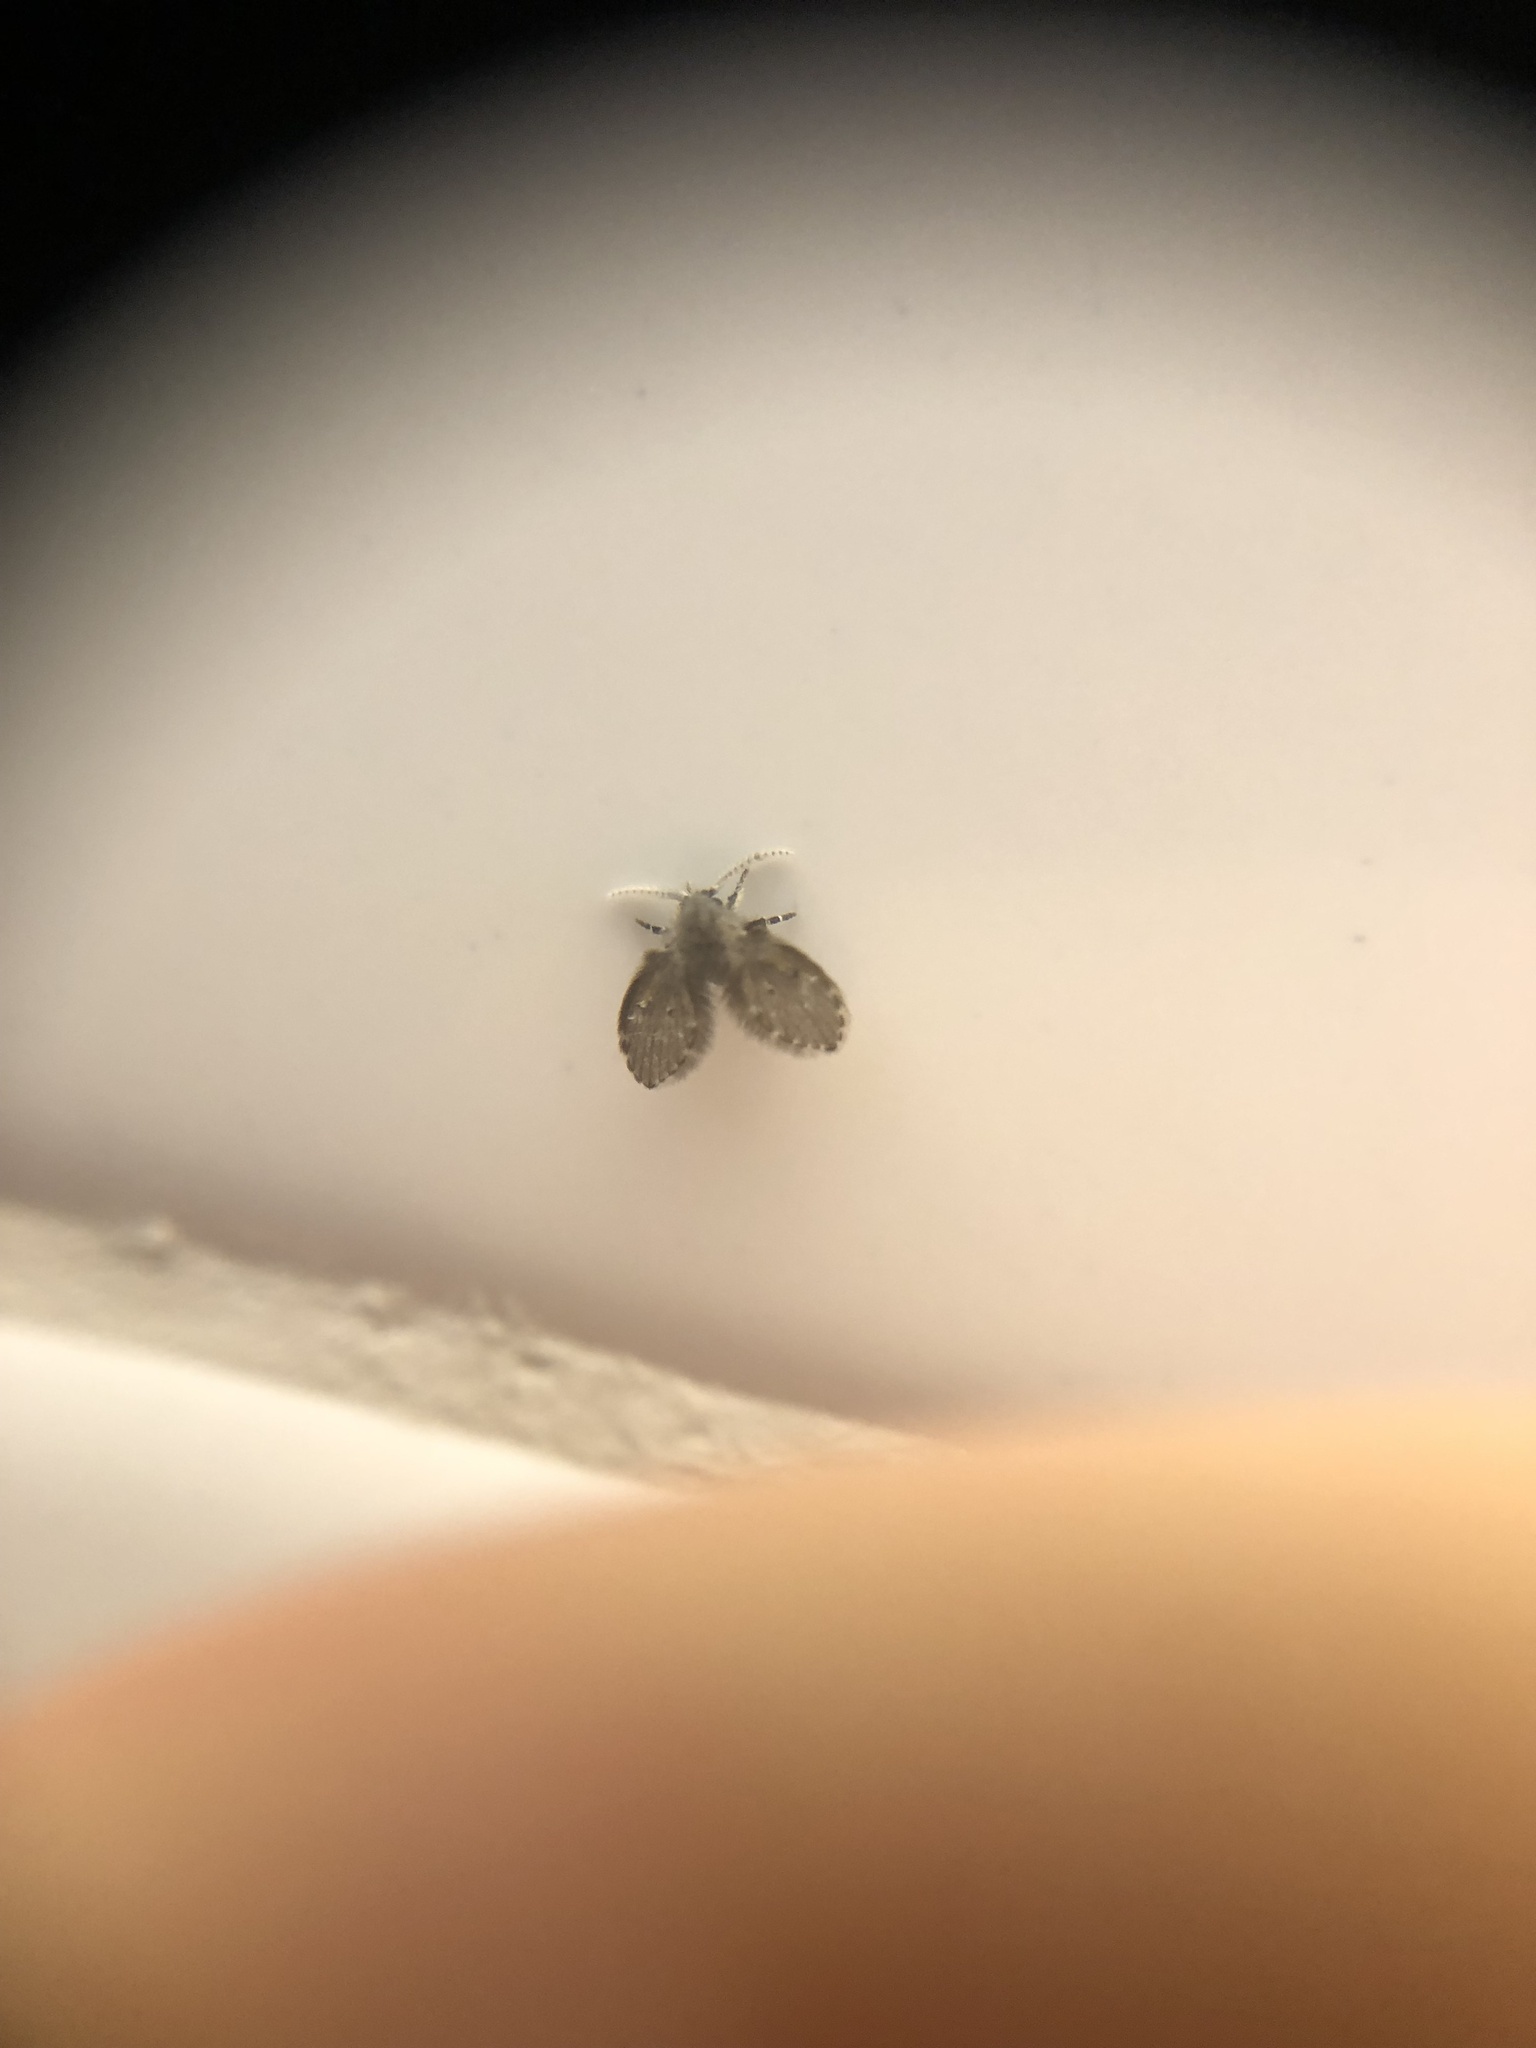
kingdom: Animalia
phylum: Arthropoda
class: Insecta
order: Diptera
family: Psychodidae
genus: Clogmia
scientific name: Clogmia albipunctatus
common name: White-spotted moth fly
